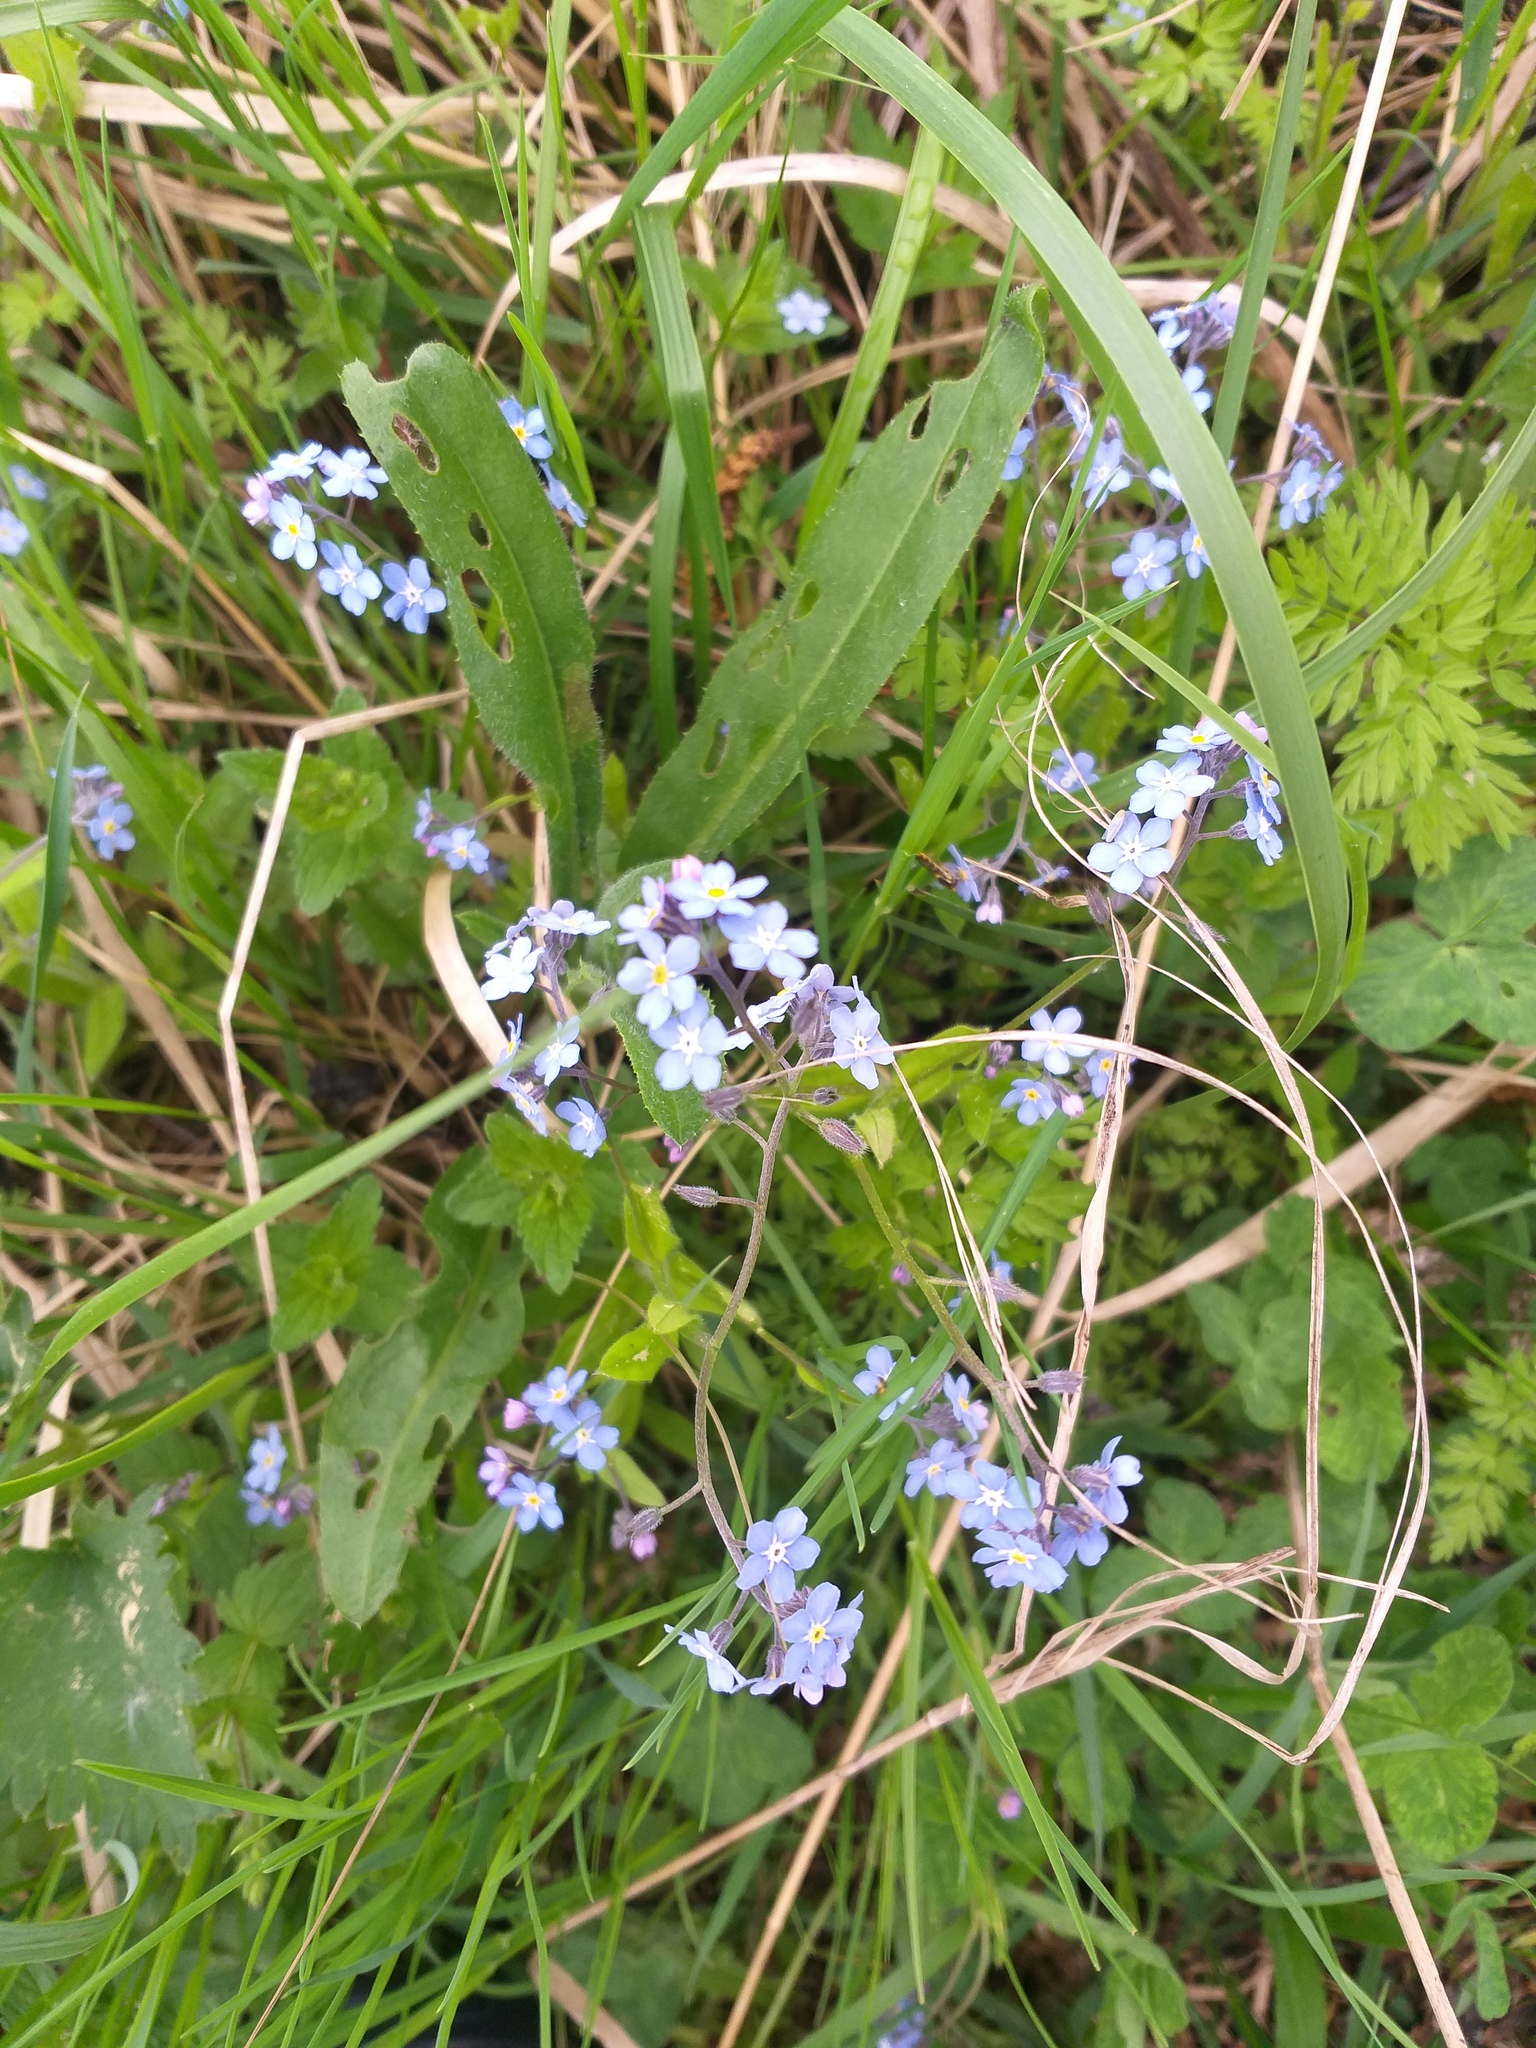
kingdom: Plantae
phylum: Tracheophyta
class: Magnoliopsida
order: Boraginales
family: Boraginaceae
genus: Myosotis
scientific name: Myosotis sylvatica
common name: Wood forget-me-not
